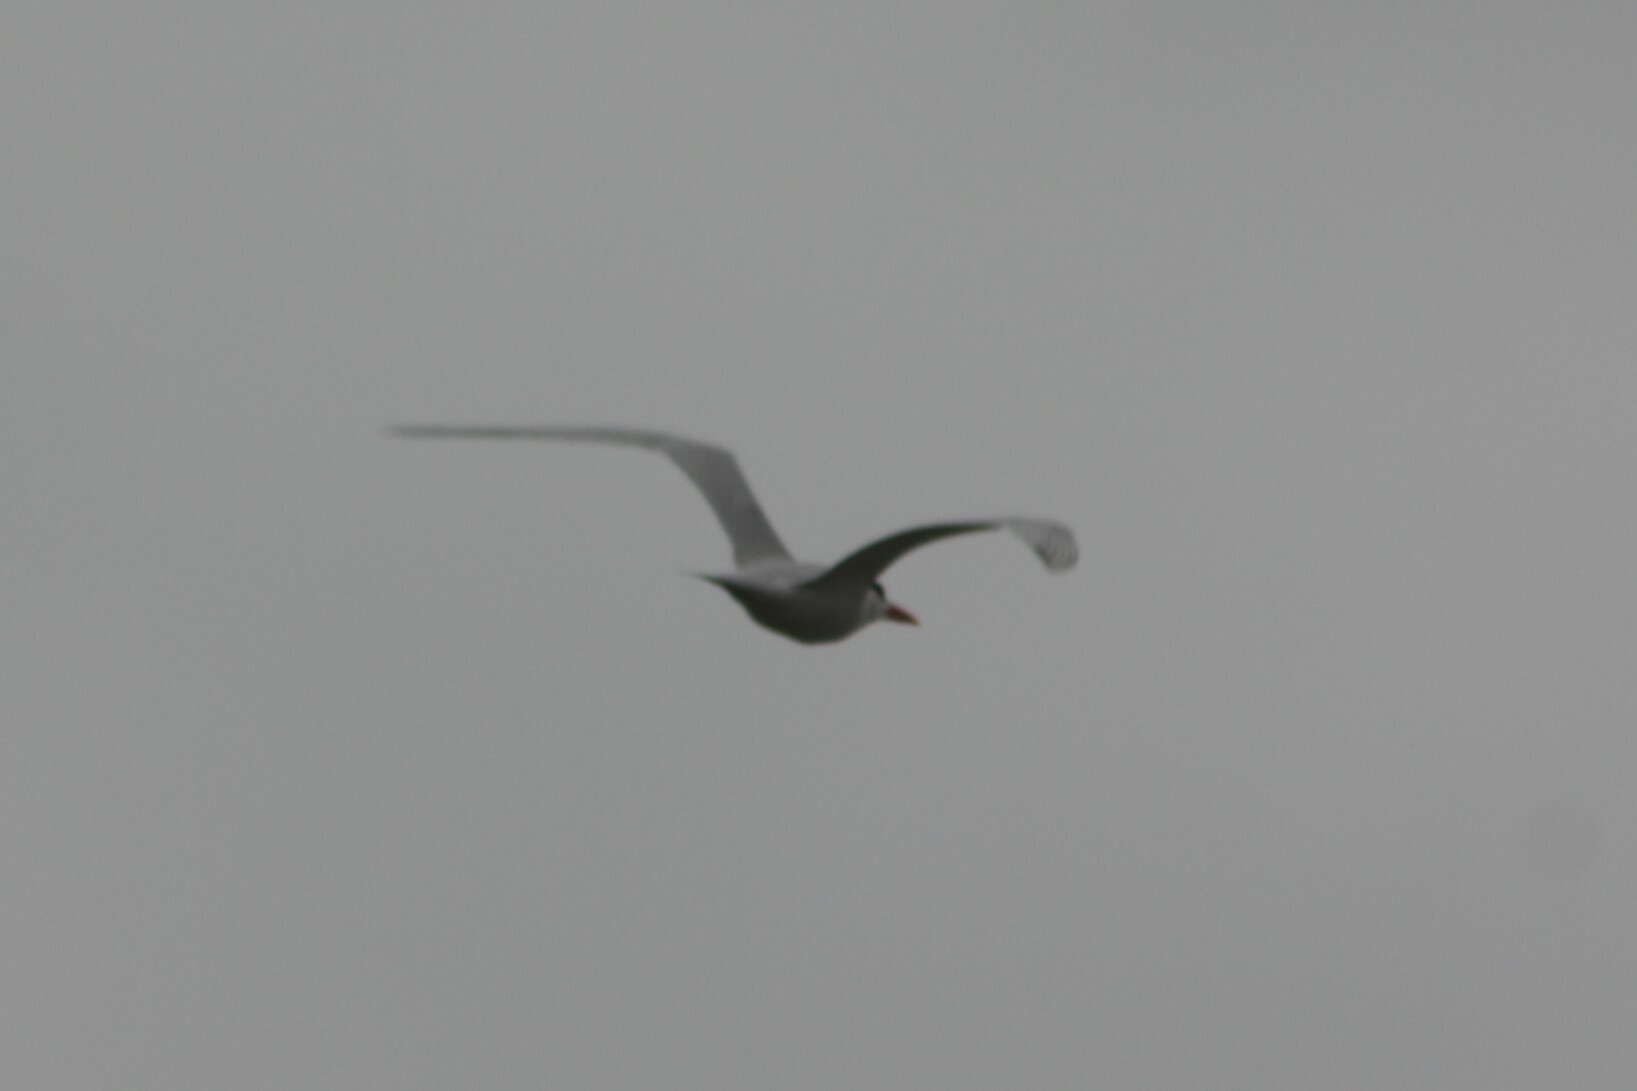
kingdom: Animalia
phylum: Chordata
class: Aves
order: Charadriiformes
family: Laridae
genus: Thalasseus
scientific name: Thalasseus maximus
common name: Royal tern
